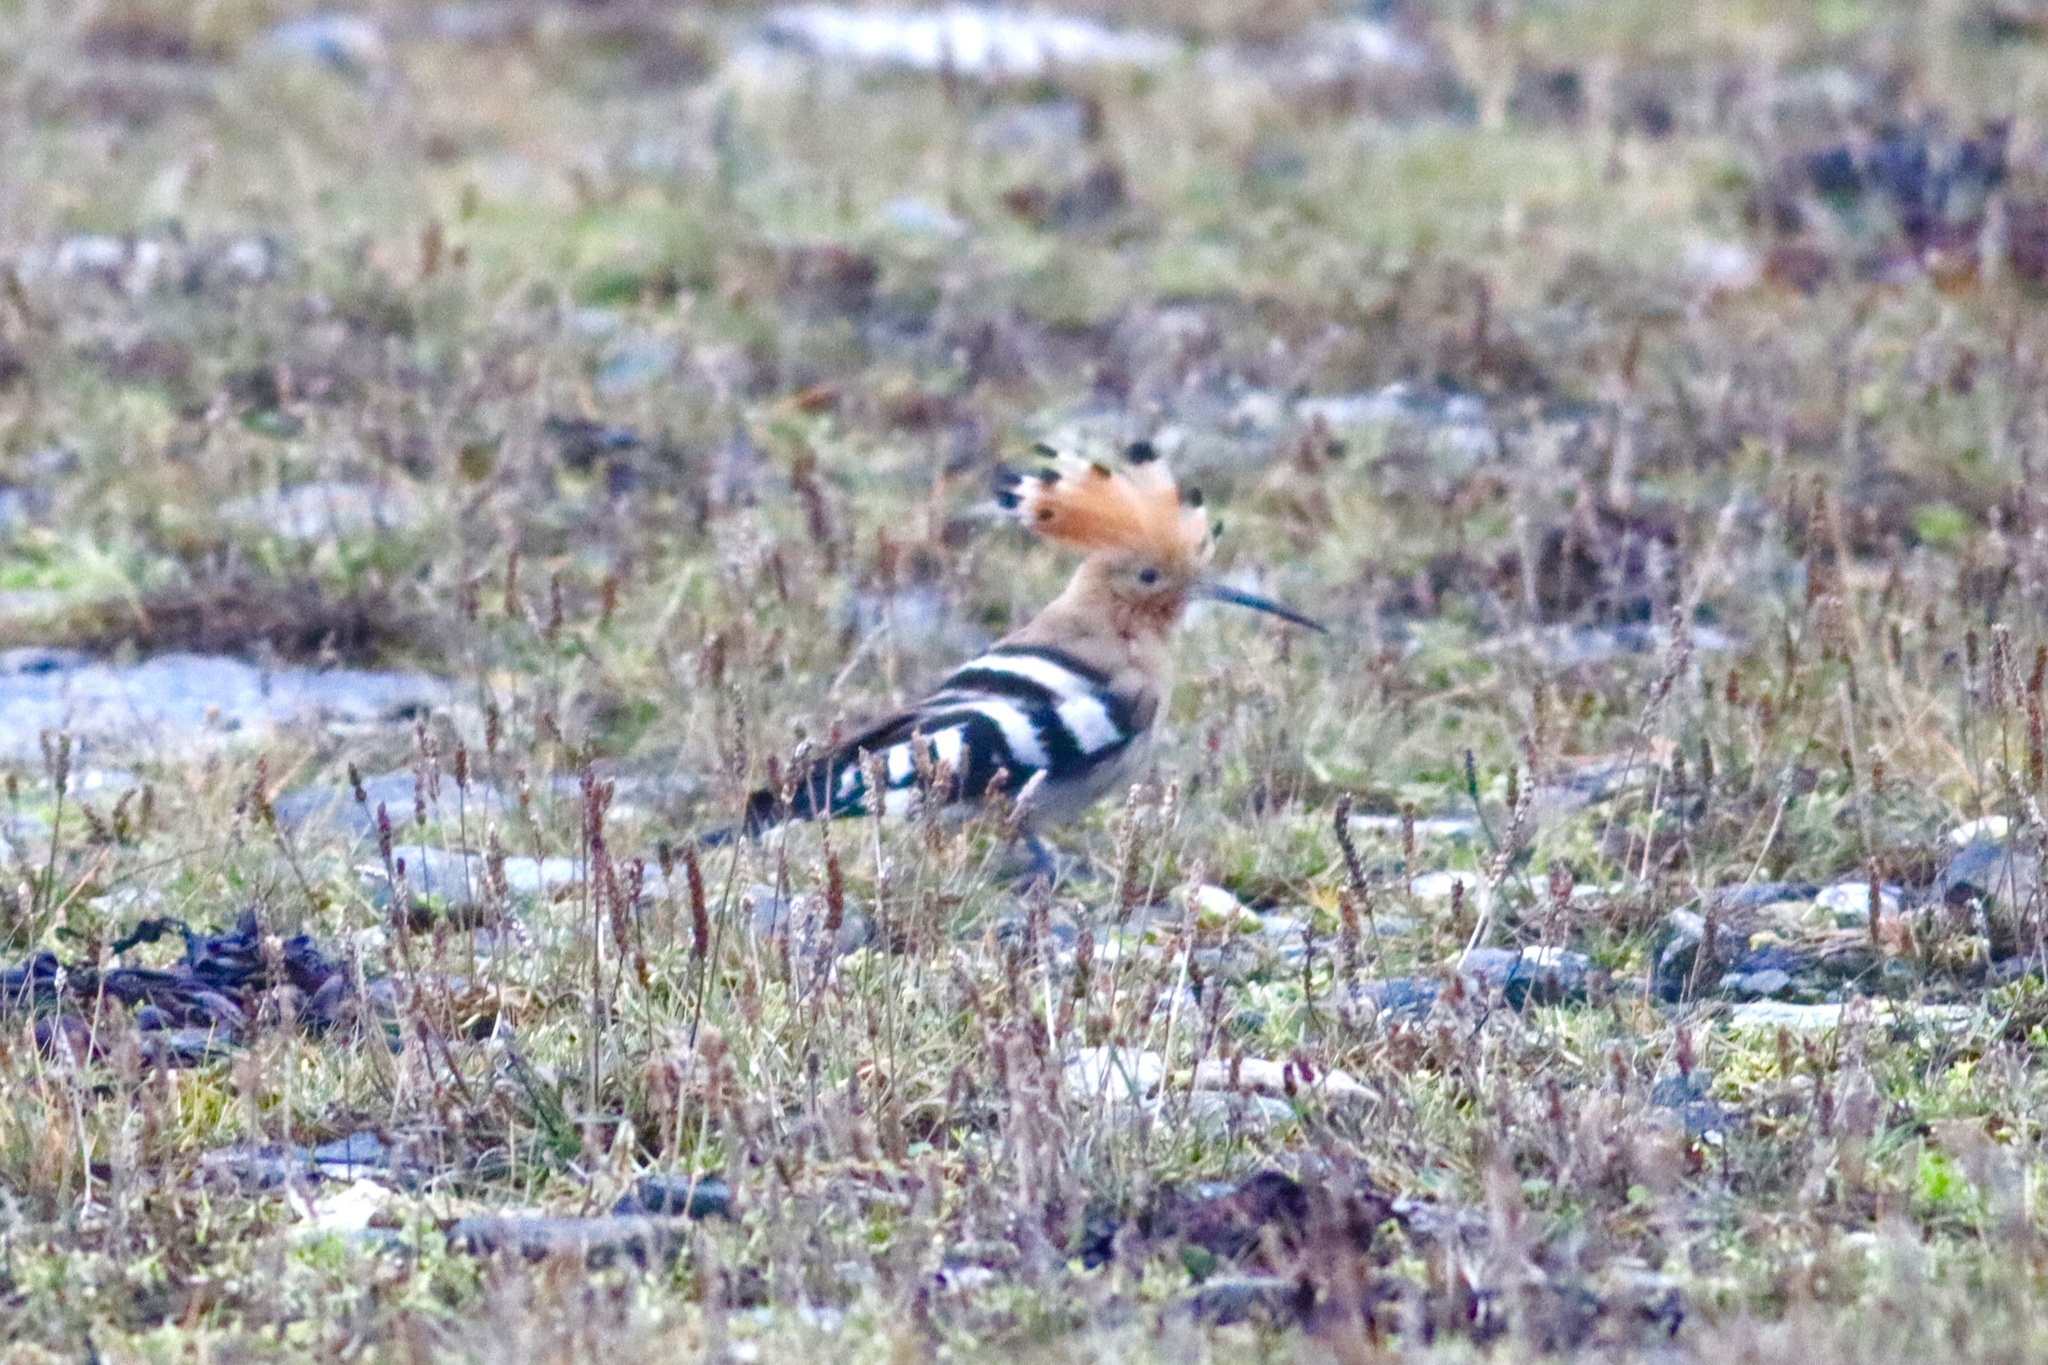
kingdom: Animalia
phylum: Chordata
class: Aves
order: Bucerotiformes
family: Upupidae
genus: Upupa
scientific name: Upupa epops
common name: Eurasian hoopoe
